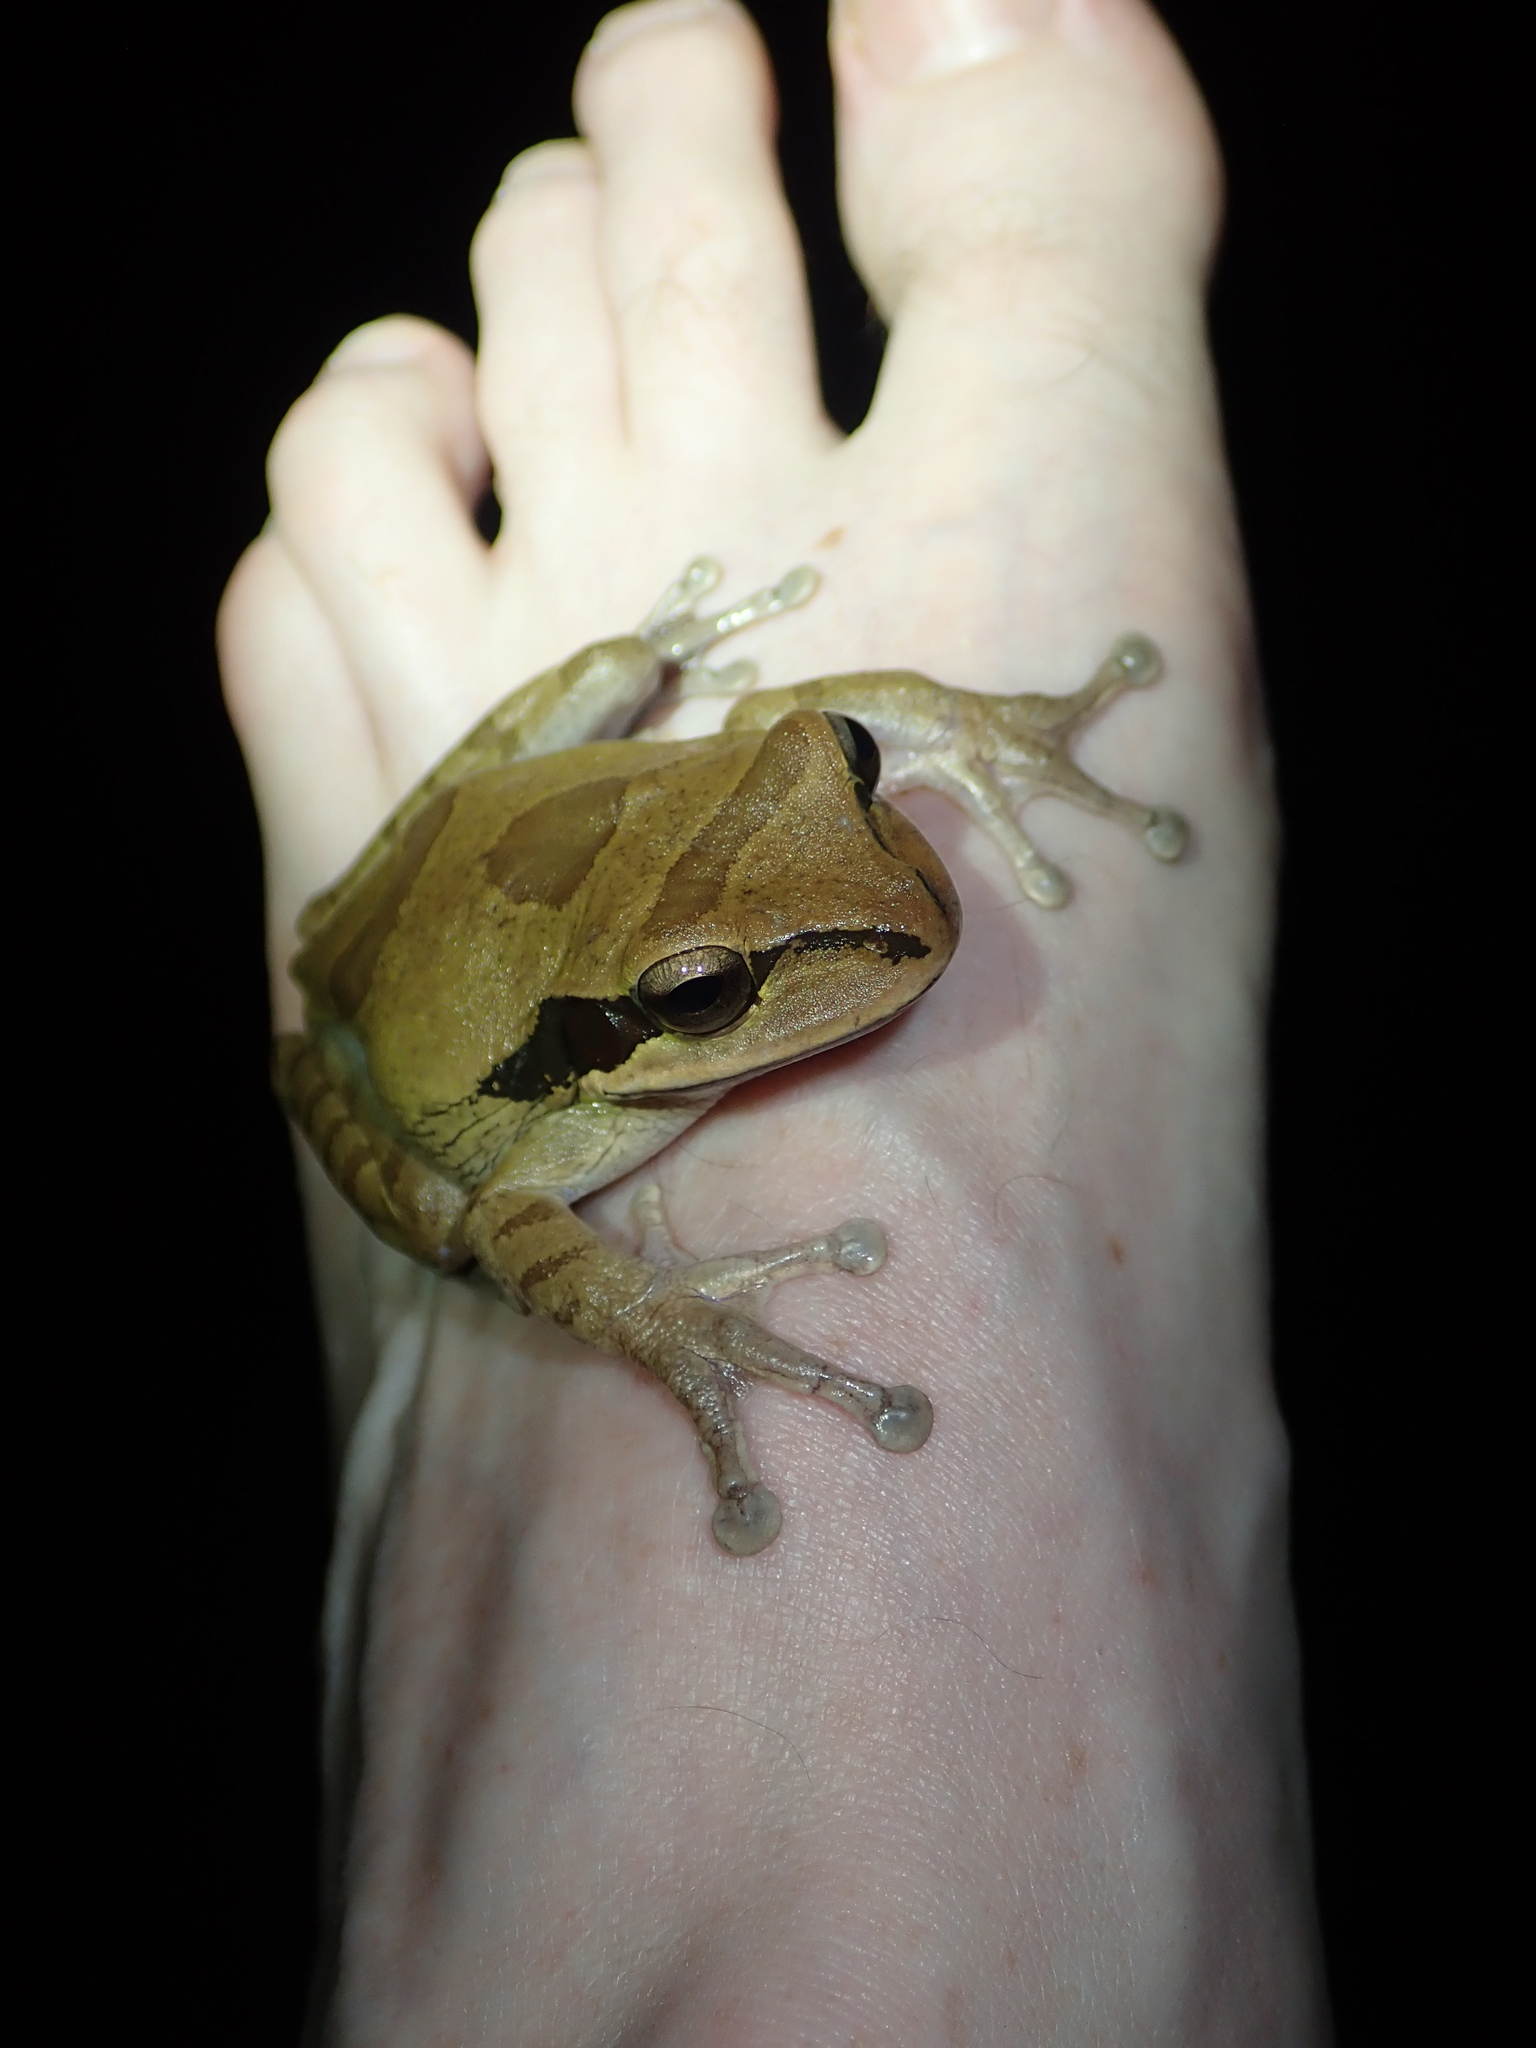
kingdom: Animalia
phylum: Chordata
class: Amphibia
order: Anura
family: Hylidae
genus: Smilisca
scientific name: Smilisca phaeota
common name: Central american smilisca
